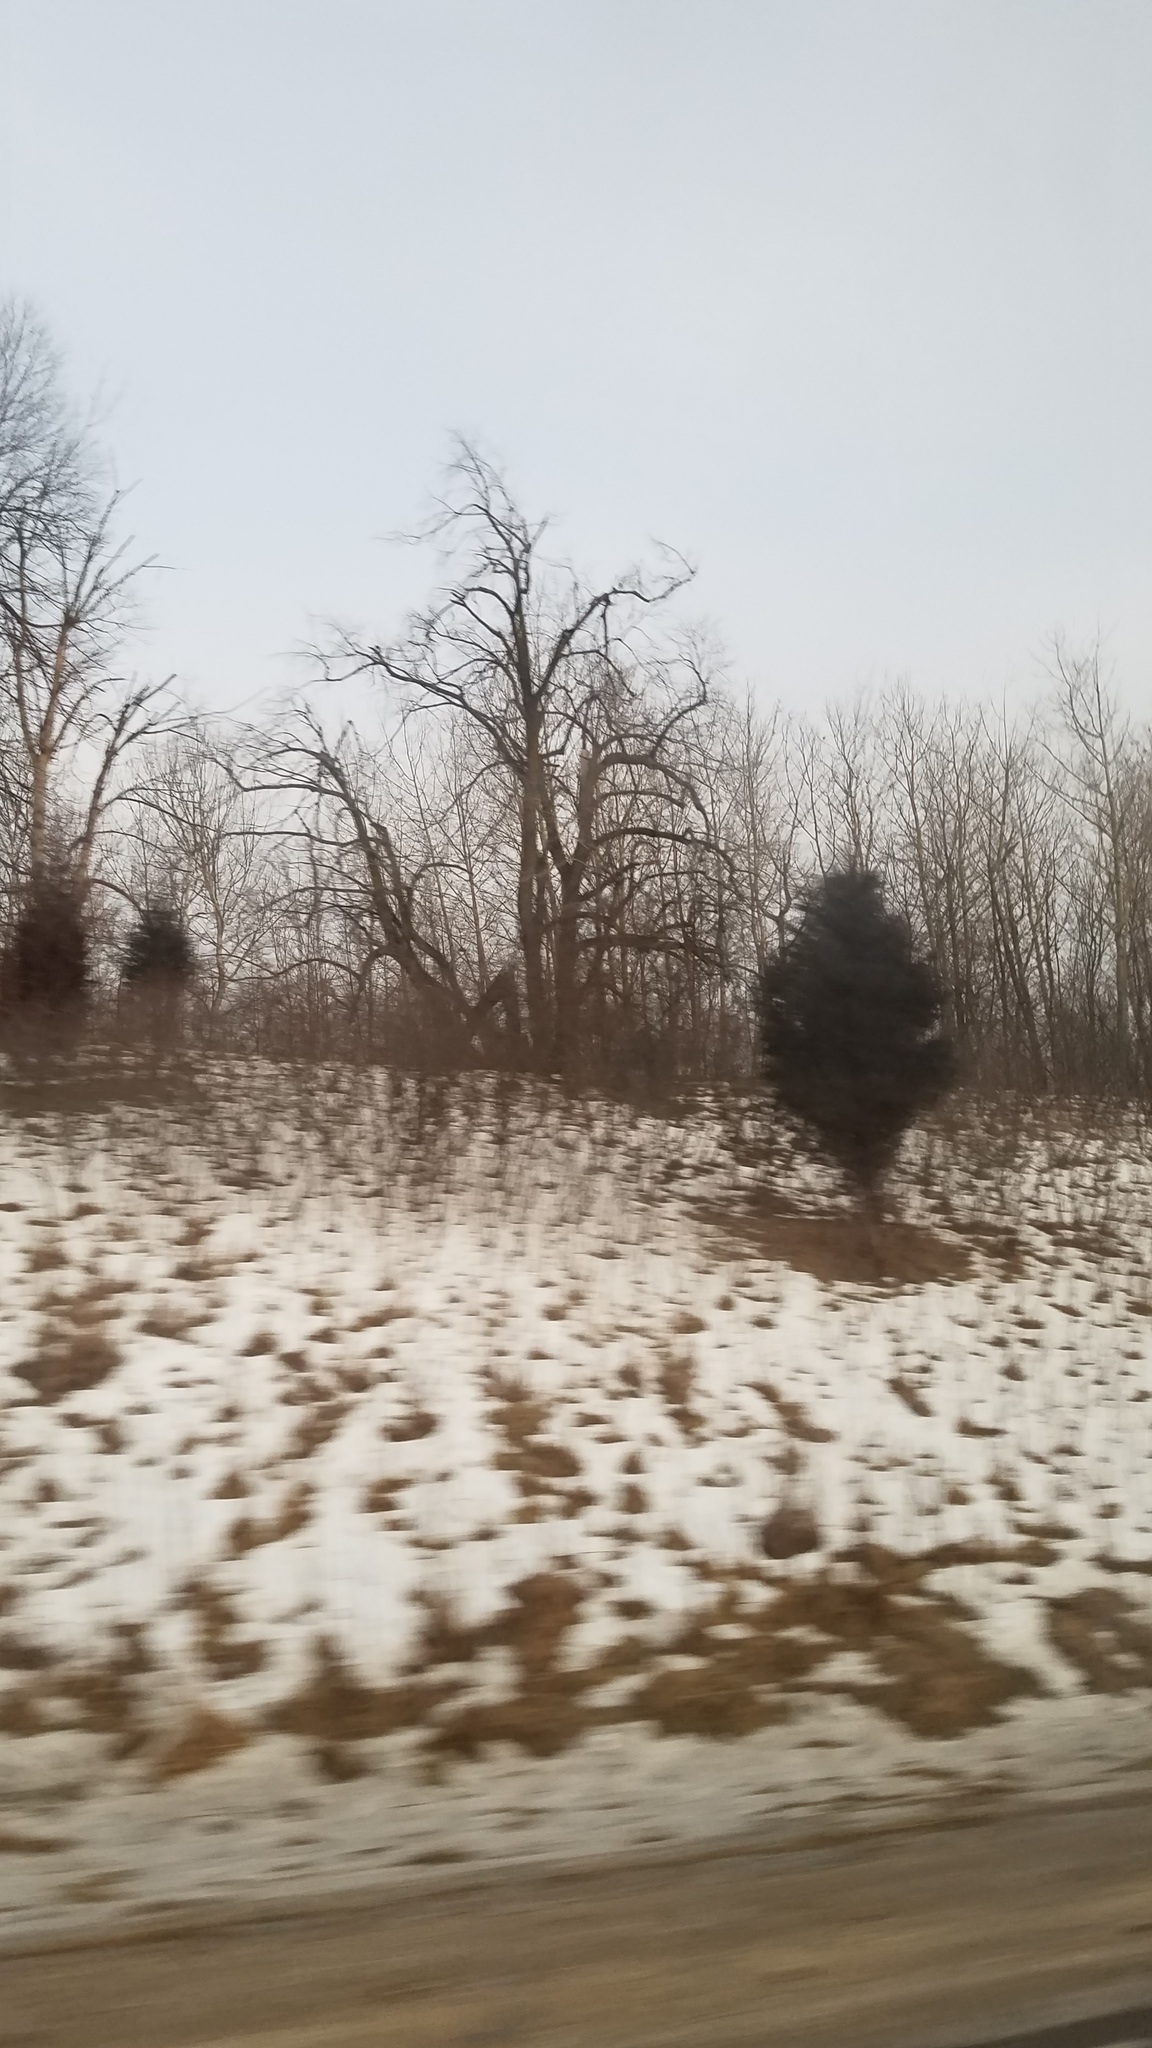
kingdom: Plantae
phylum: Tracheophyta
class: Pinopsida
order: Pinales
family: Cupressaceae
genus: Juniperus
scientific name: Juniperus virginiana
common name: Red juniper
